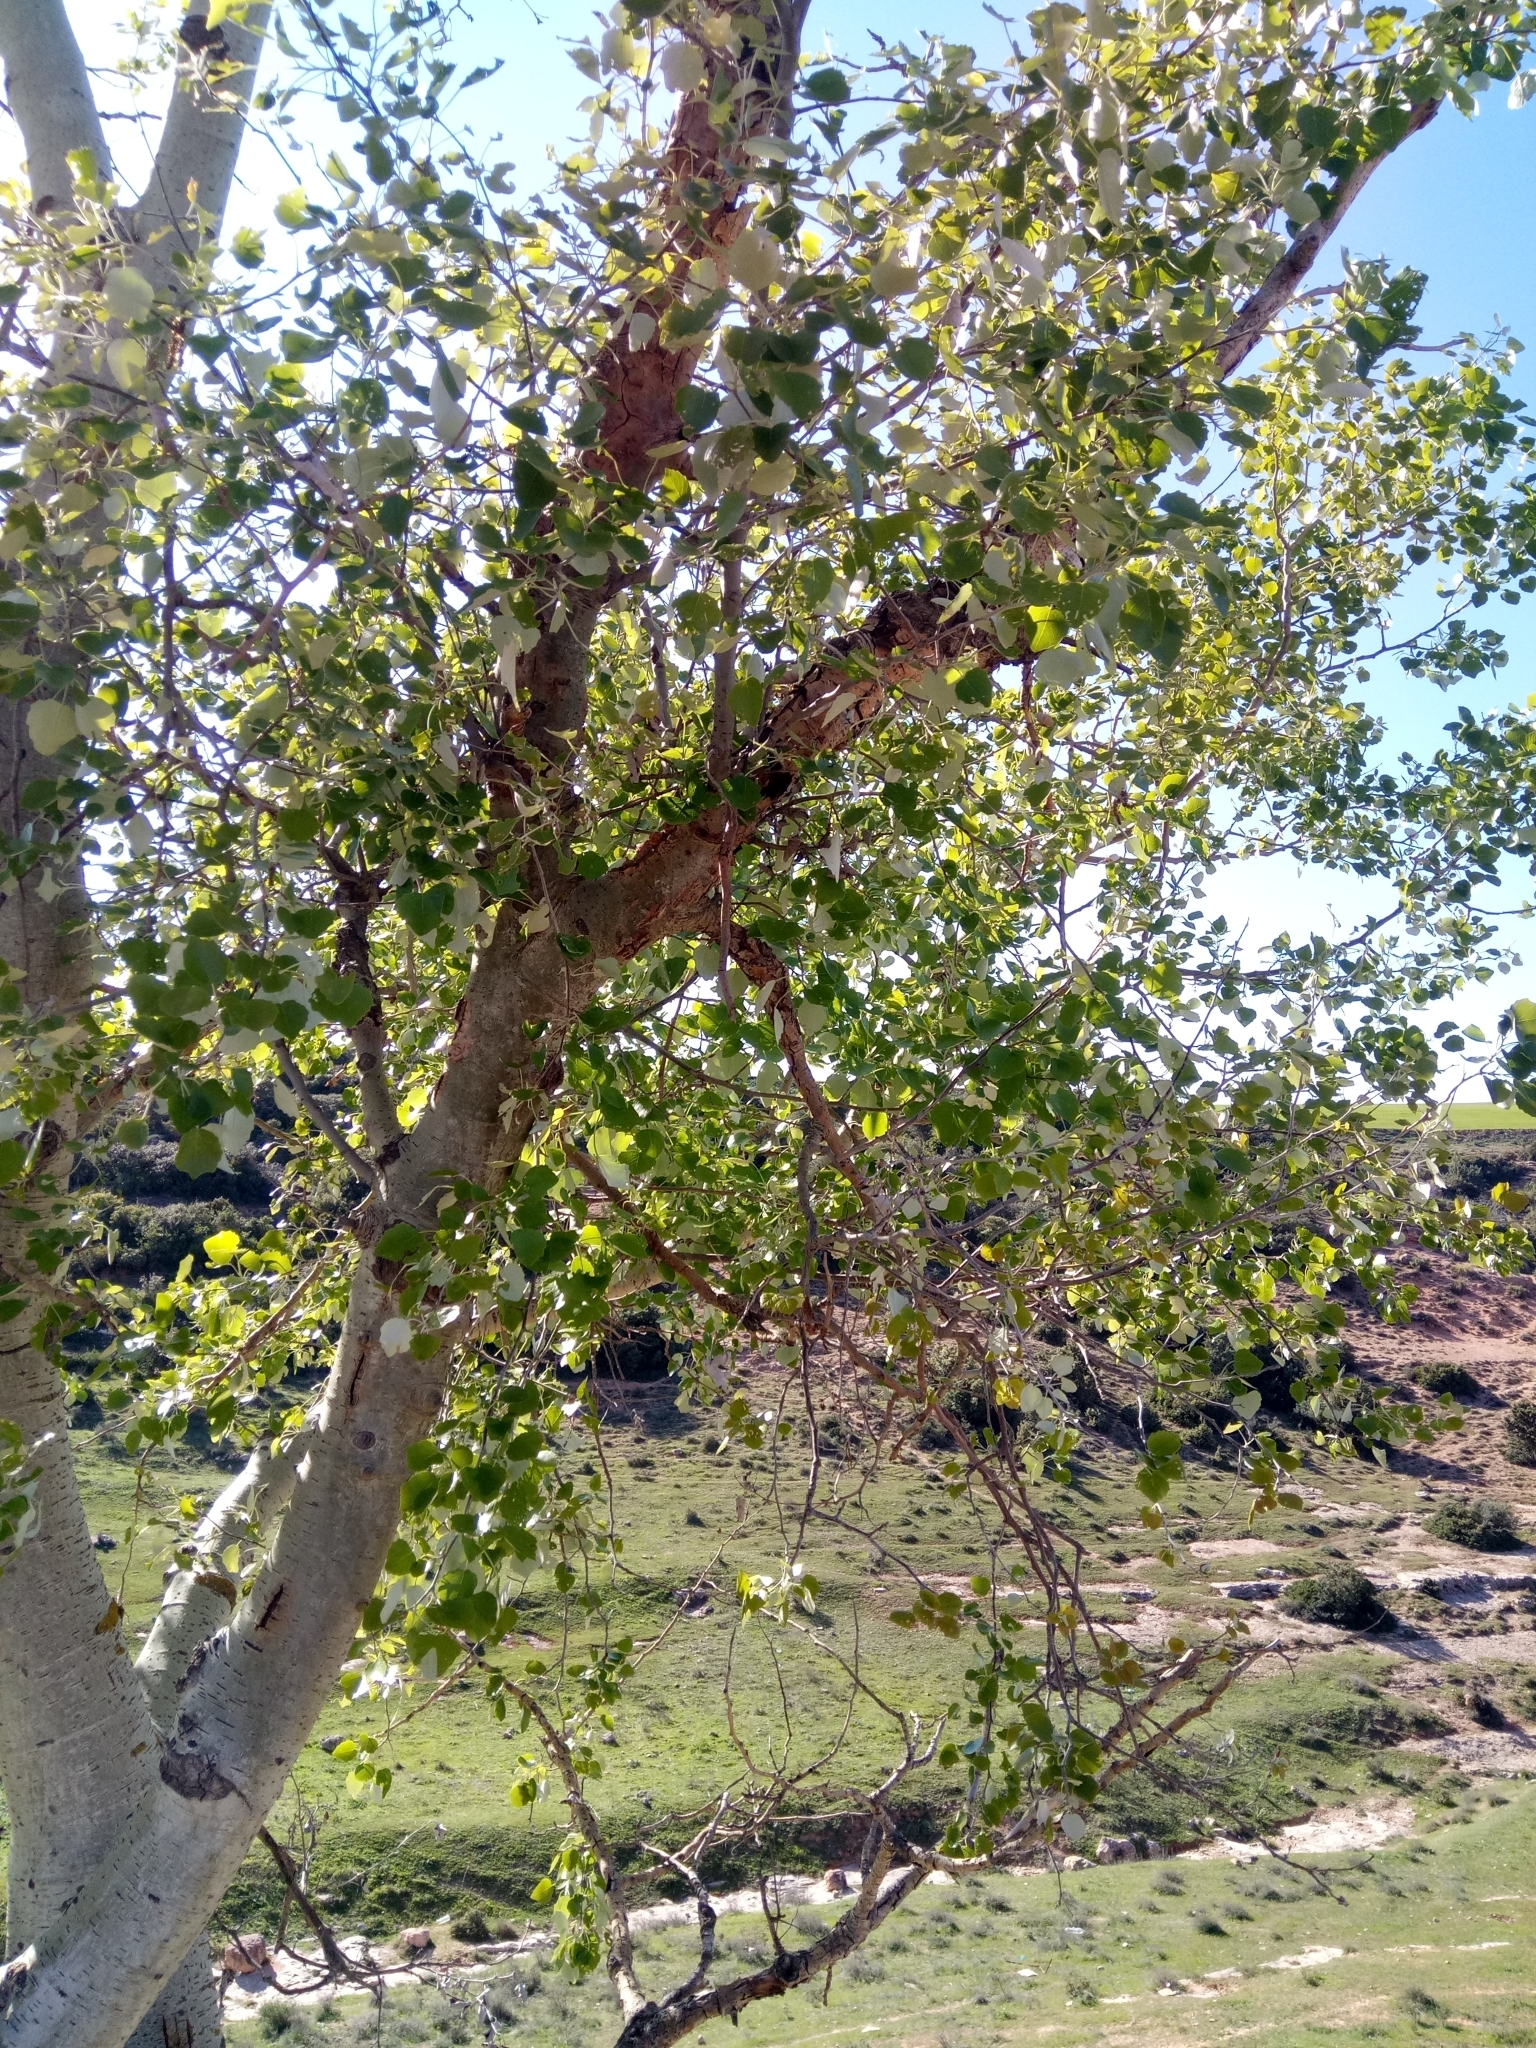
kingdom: Plantae
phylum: Tracheophyta
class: Magnoliopsida
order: Malpighiales
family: Salicaceae
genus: Populus
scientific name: Populus alba
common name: White poplar
